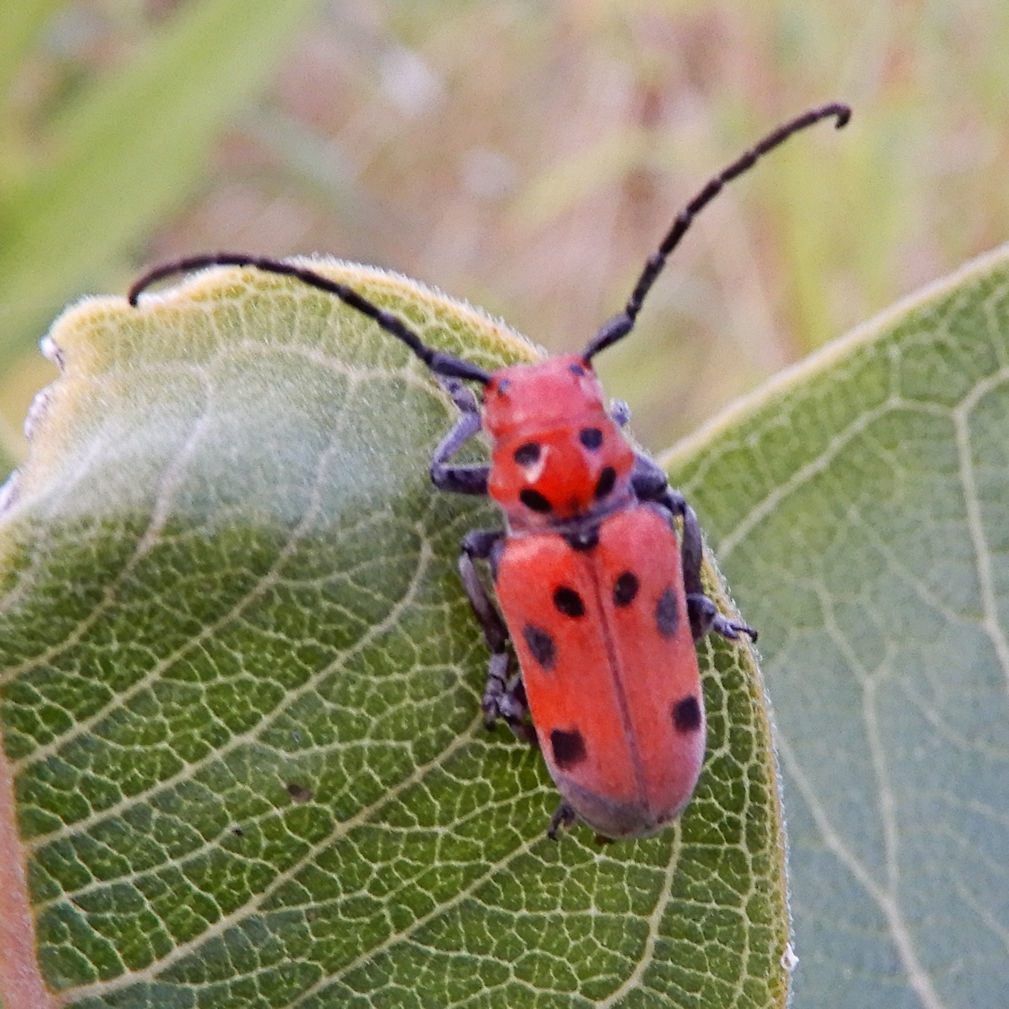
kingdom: Animalia
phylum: Arthropoda
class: Insecta
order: Coleoptera
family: Cerambycidae
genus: Tetraopes
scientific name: Tetraopes tetrophthalmus
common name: Red milkweed beetle
